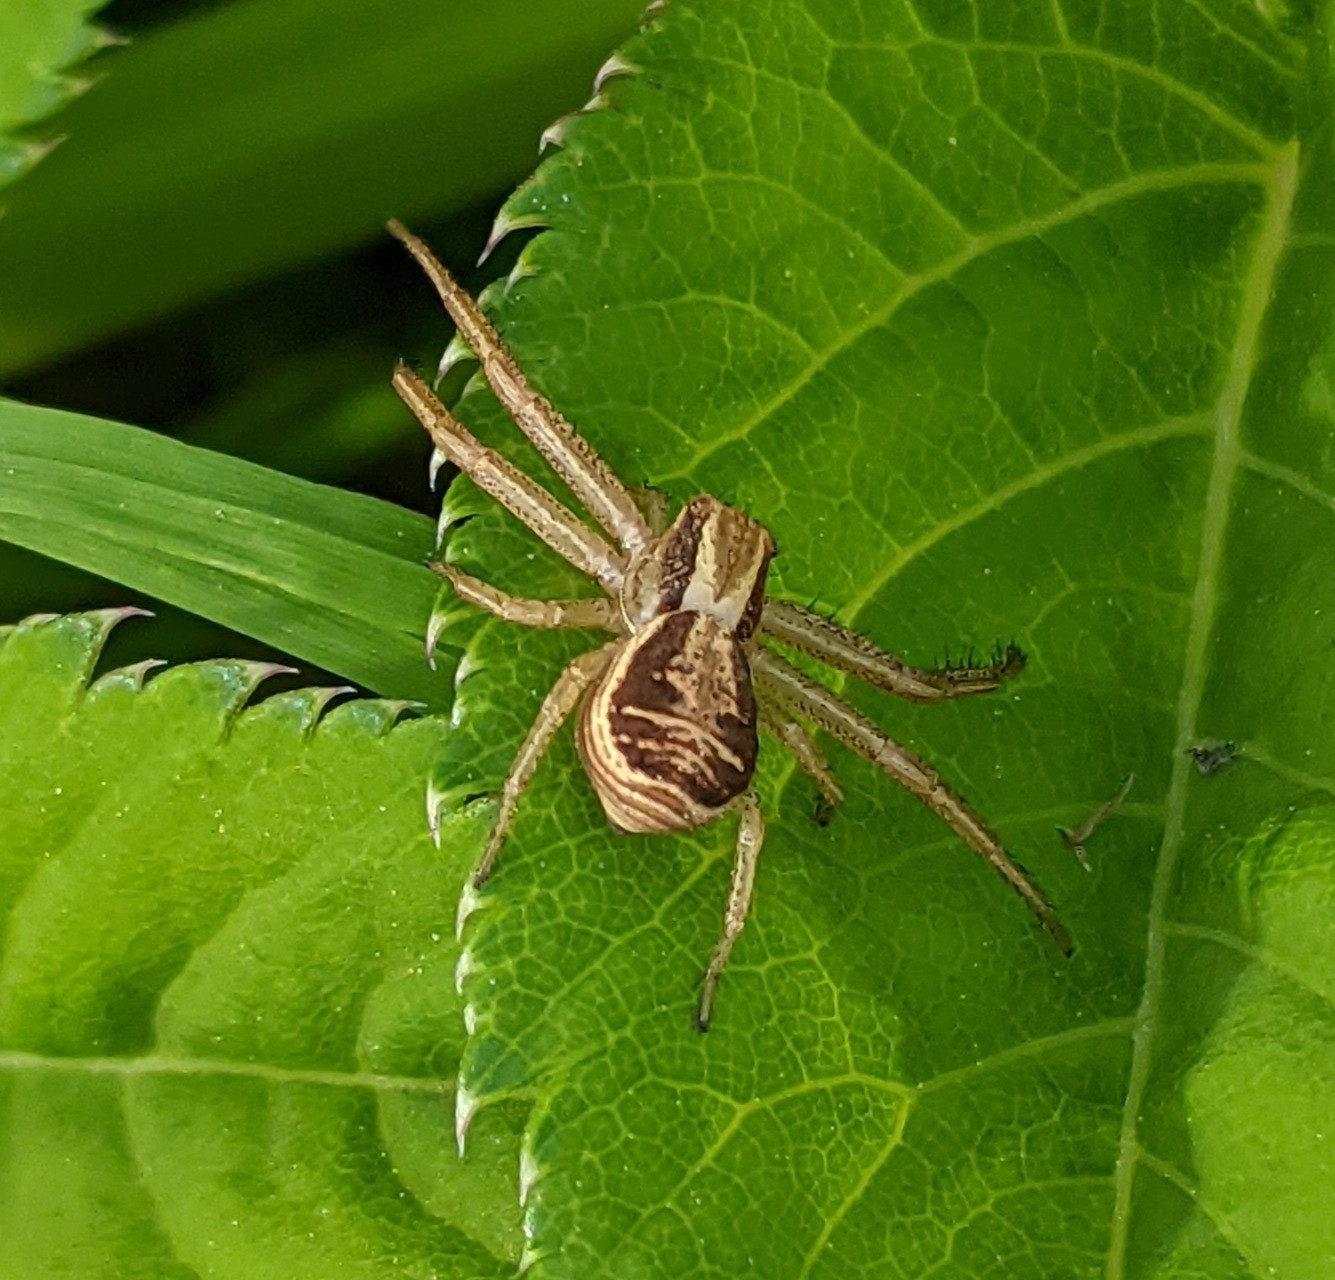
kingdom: Animalia
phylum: Arthropoda
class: Arachnida
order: Araneae
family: Thomisidae
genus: Xysticus
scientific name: Xysticus ulmi
